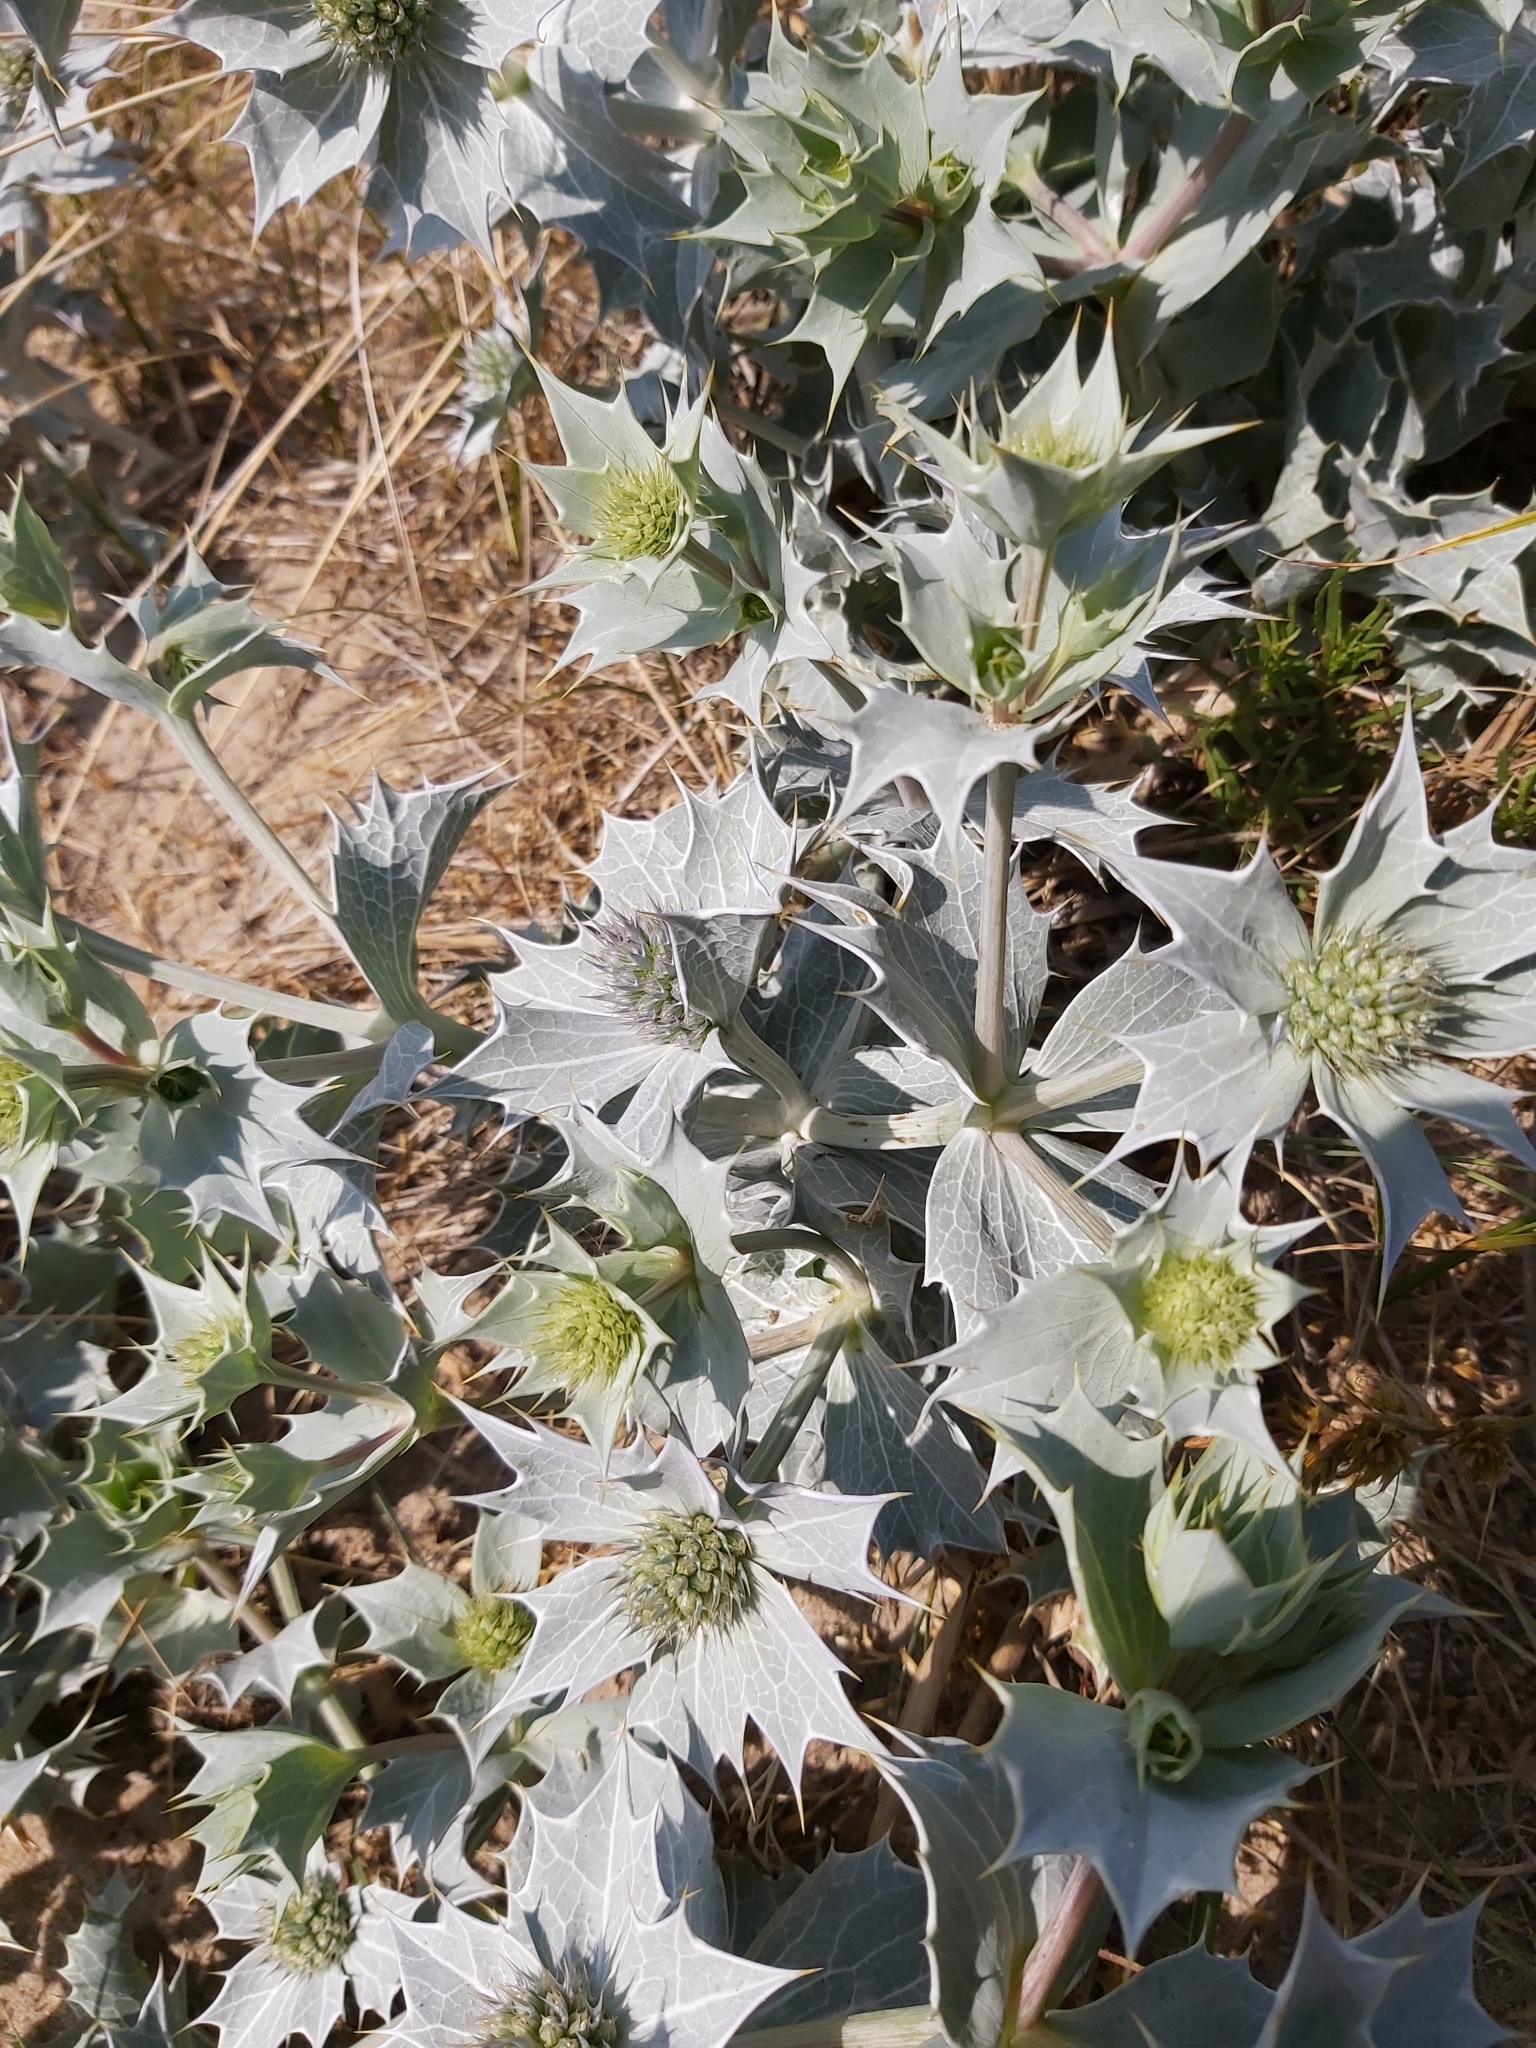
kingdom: Plantae
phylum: Tracheophyta
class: Magnoliopsida
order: Apiales
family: Apiaceae
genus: Eryngium
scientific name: Eryngium maritimum
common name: Sea-holly
